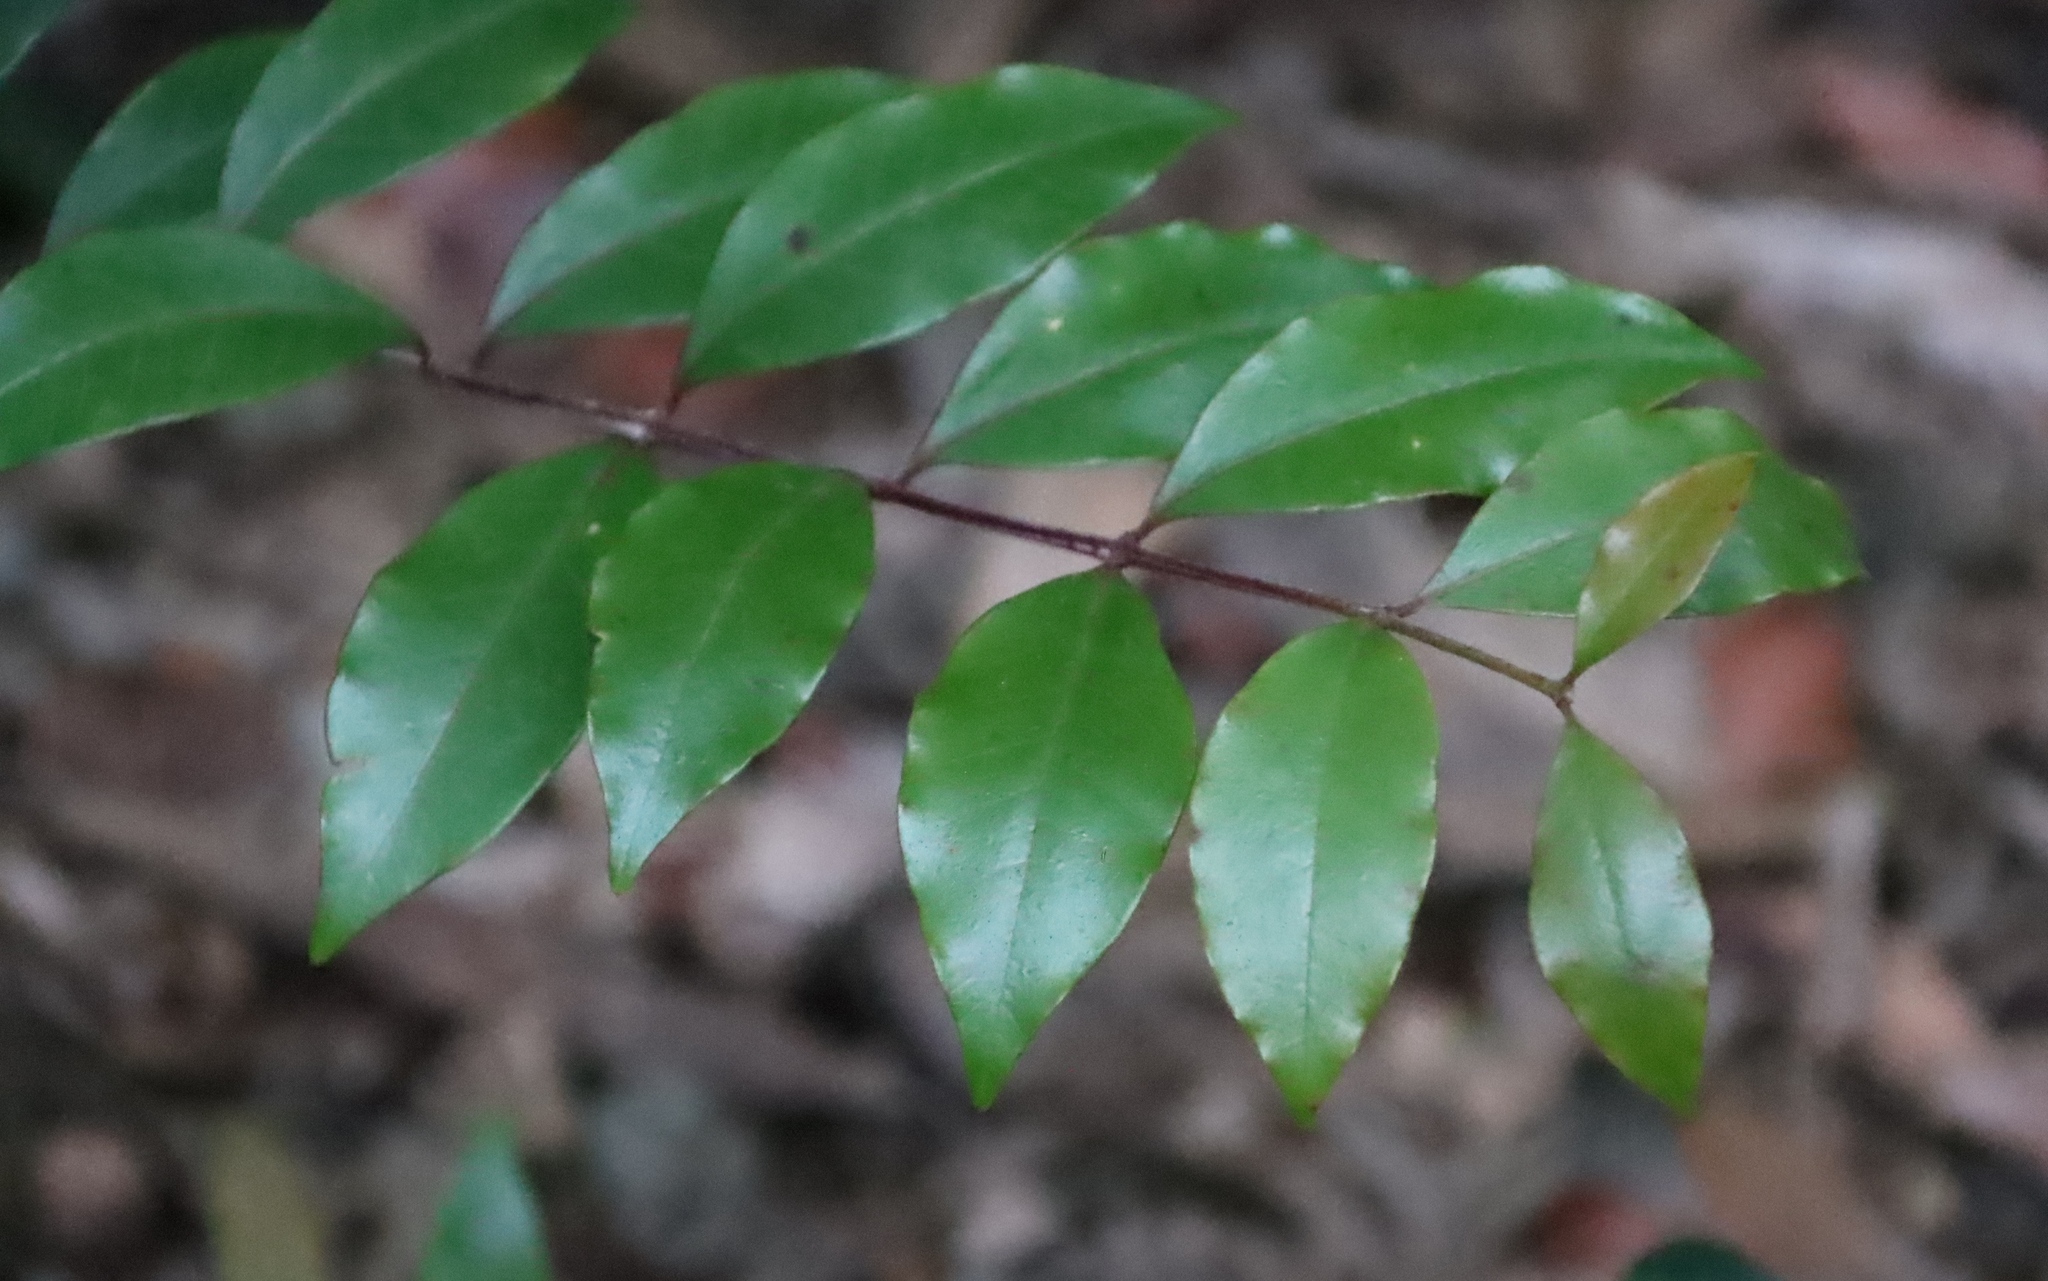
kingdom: Plantae
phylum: Tracheophyta
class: Magnoliopsida
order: Myrtales
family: Penaeaceae
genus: Olinia
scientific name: Olinia ventosa
